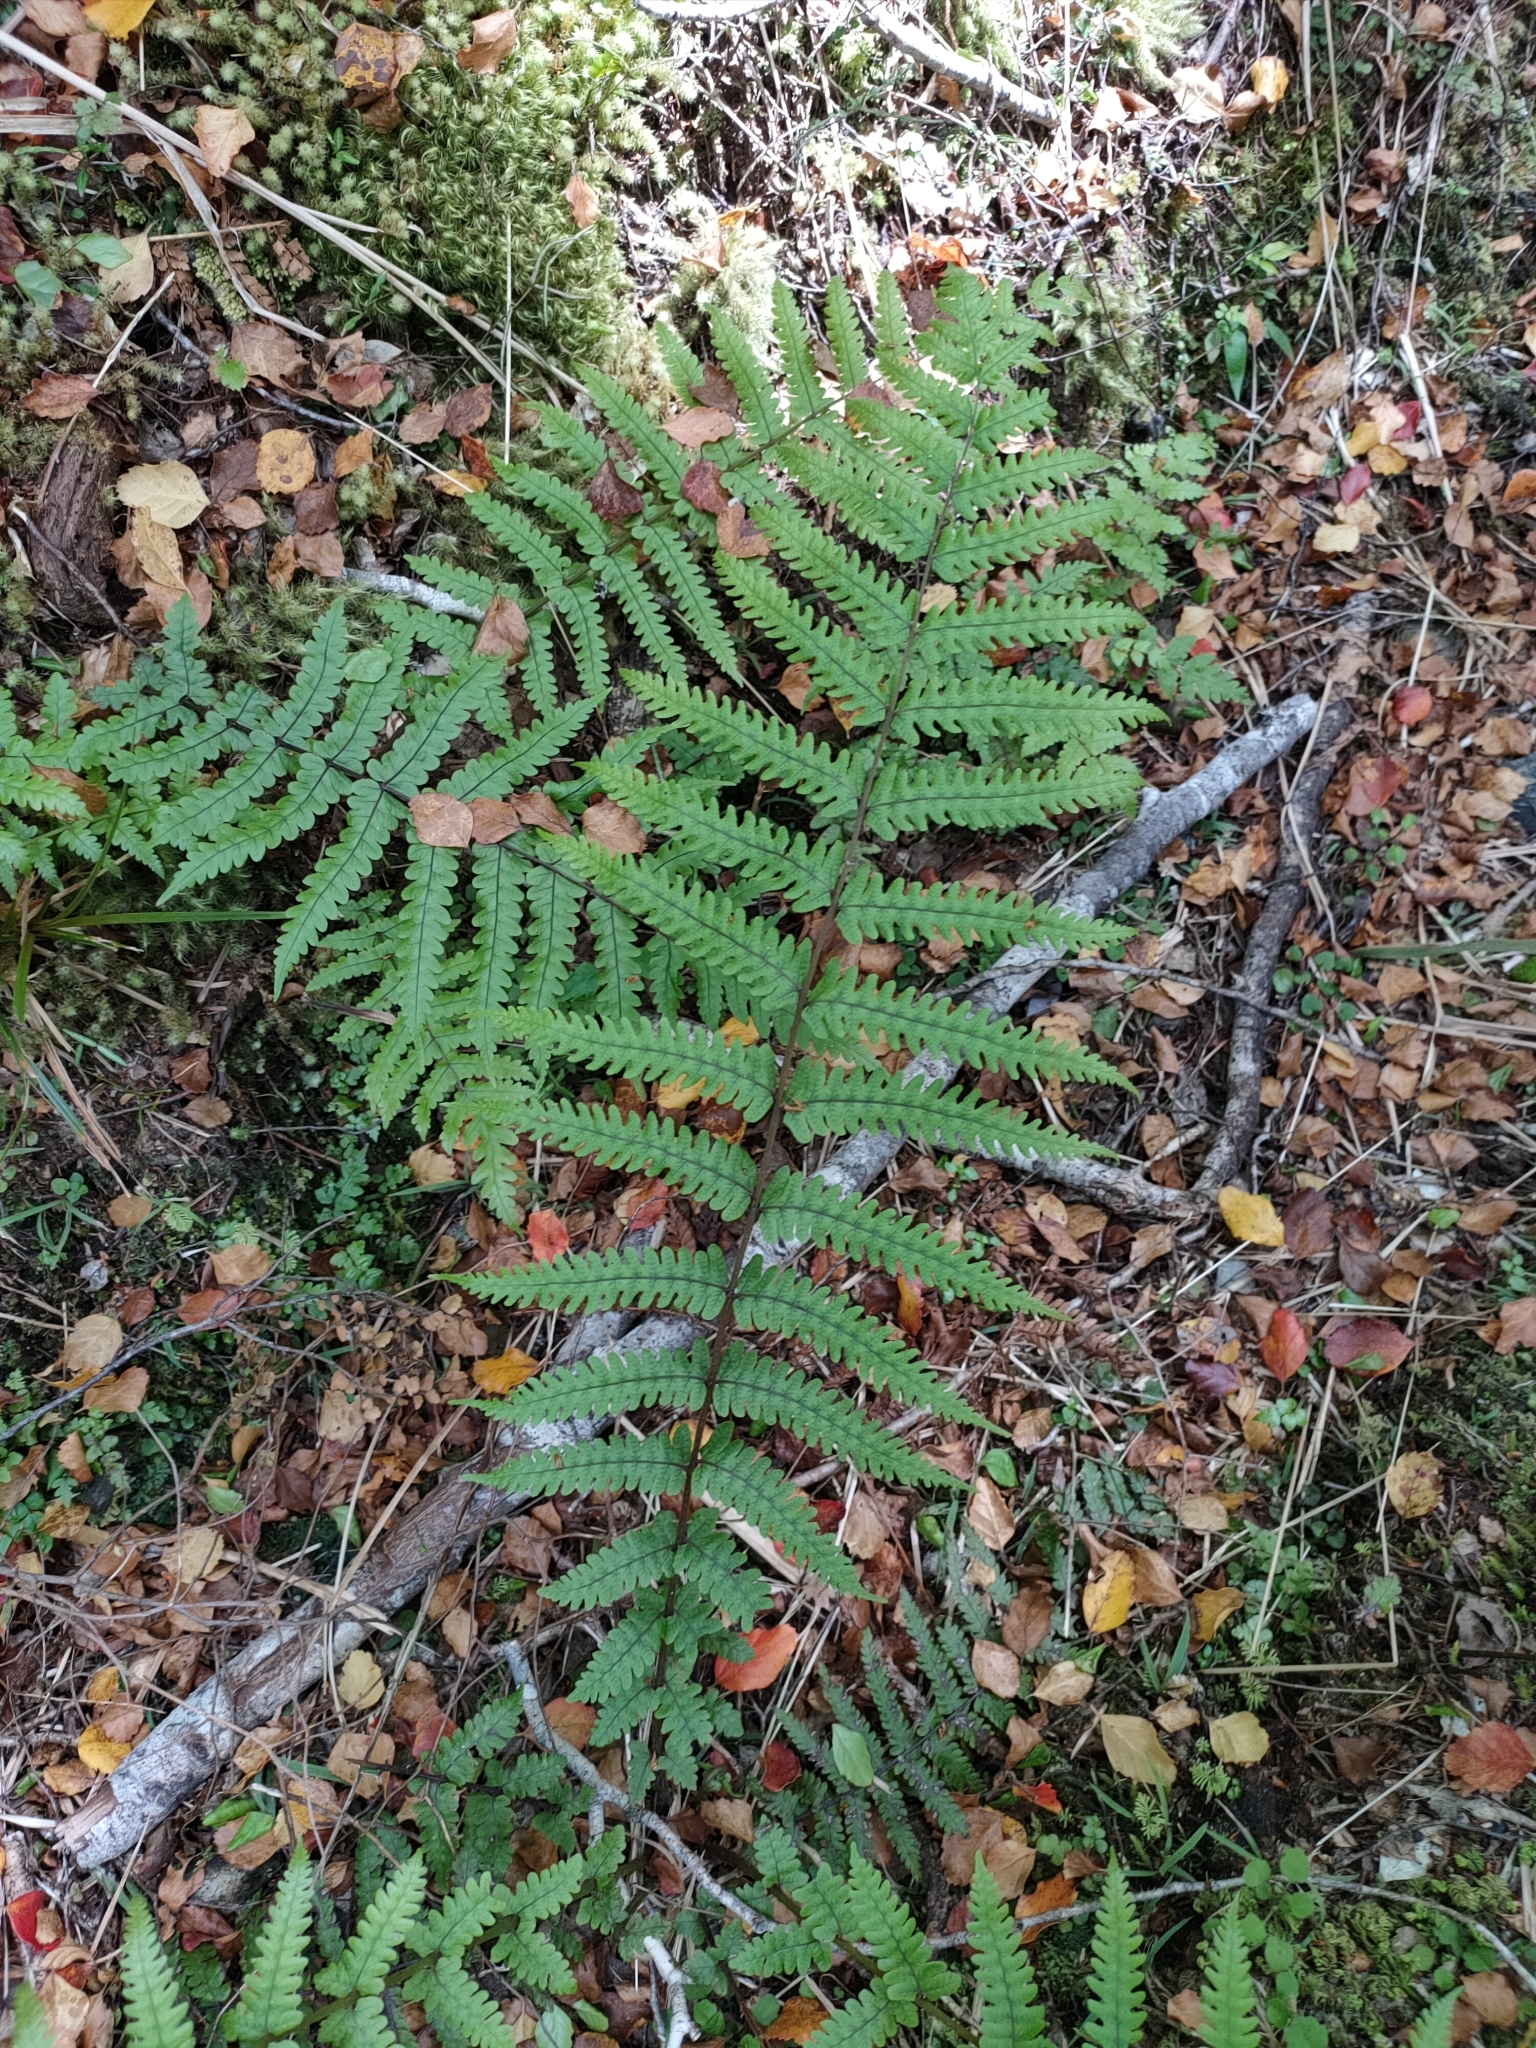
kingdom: Plantae
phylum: Tracheophyta
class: Polypodiopsida
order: Polypodiales
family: Thelypteridaceae
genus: Pakau
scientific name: Pakau pennigera
